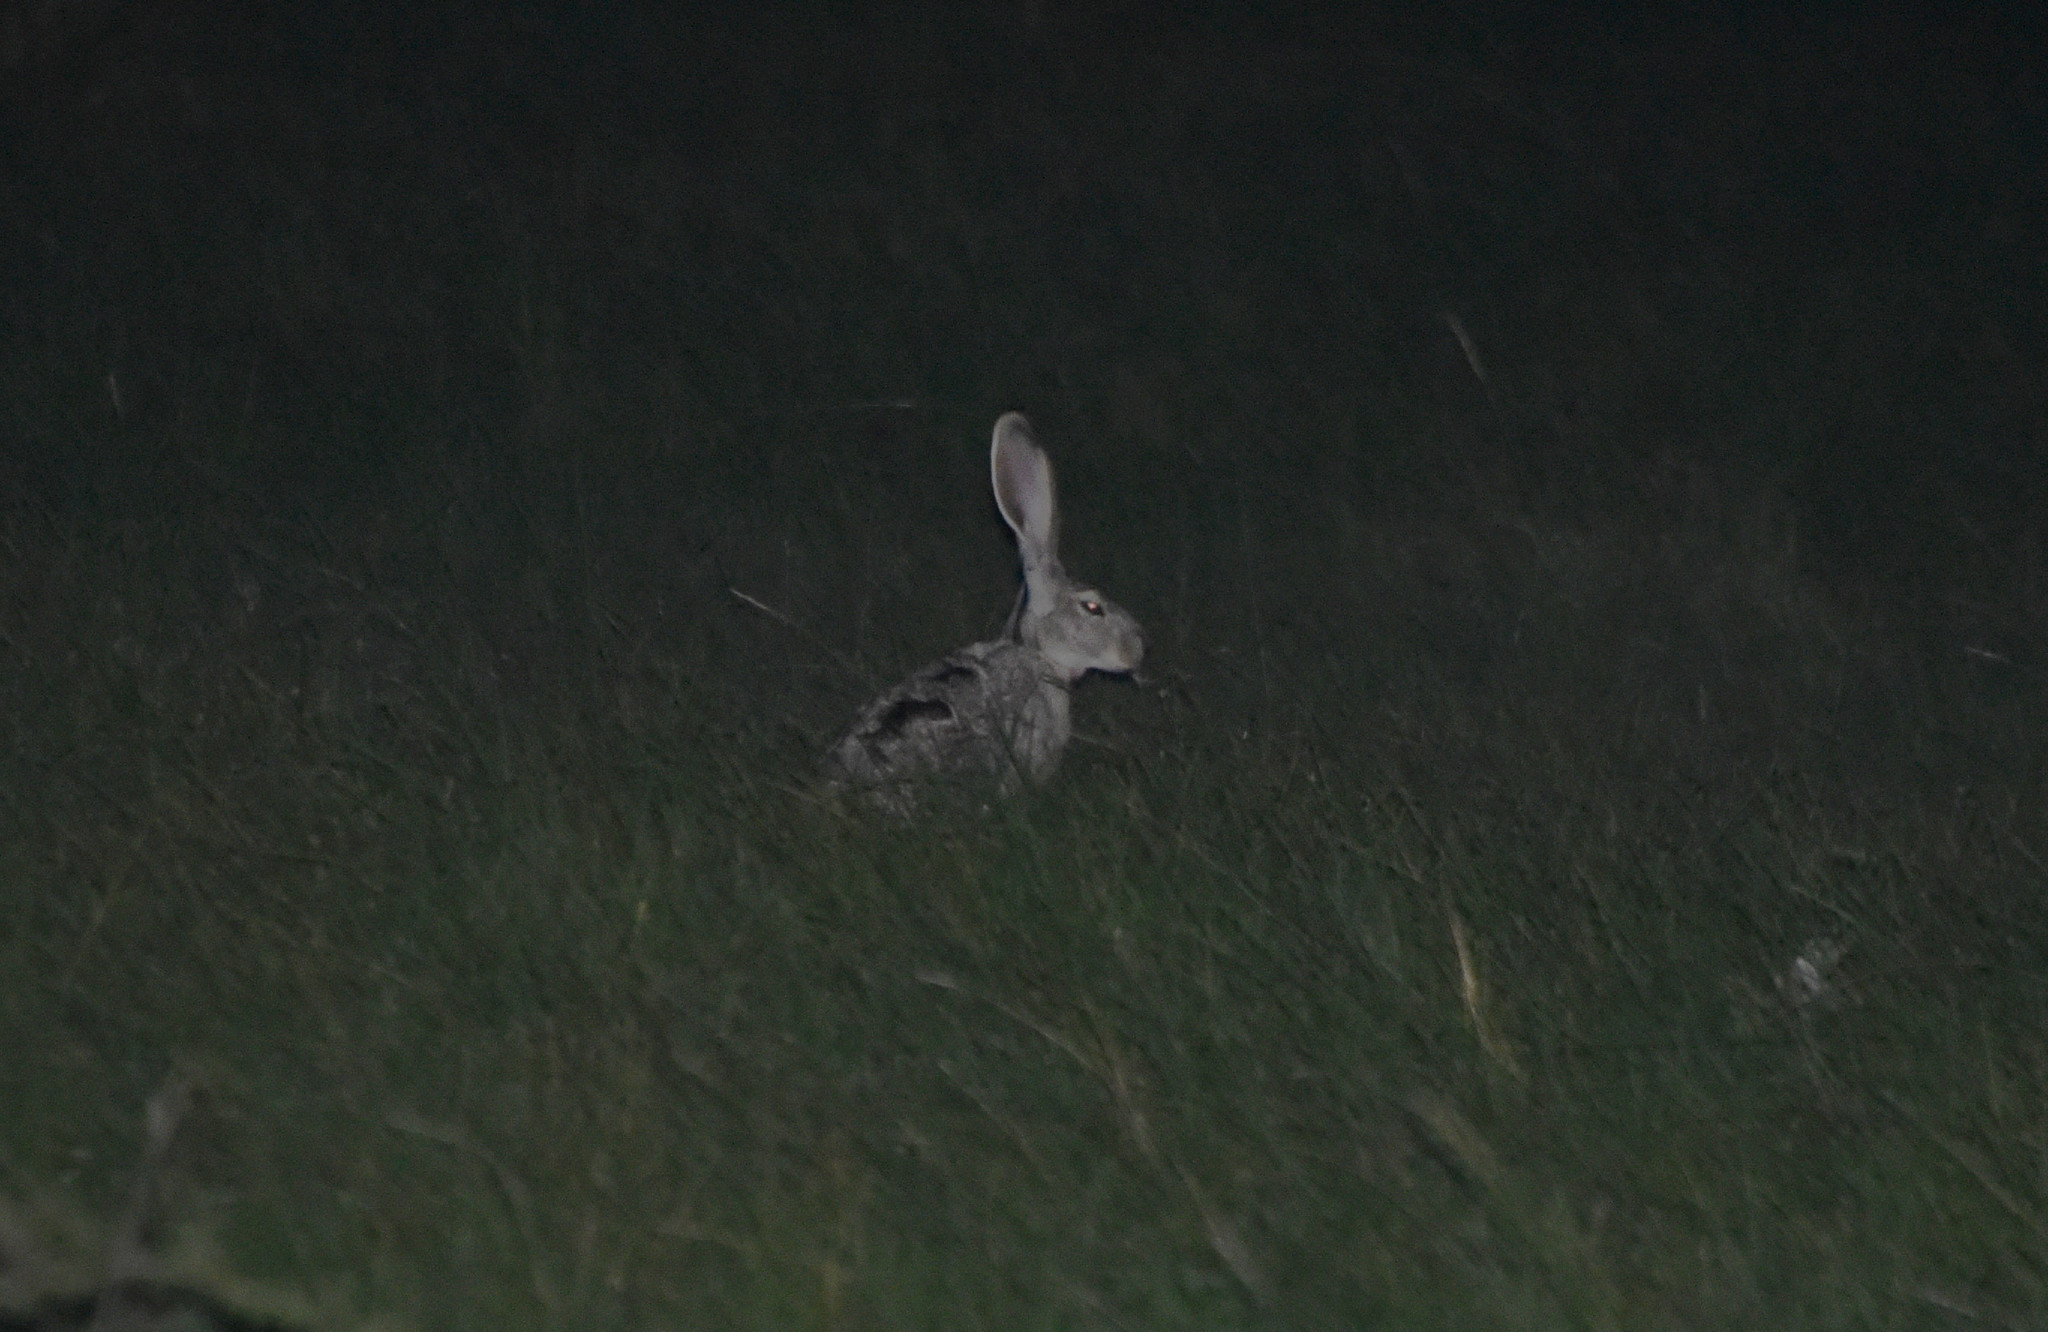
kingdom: Animalia
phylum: Chordata
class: Mammalia
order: Lagomorpha
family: Leporidae
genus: Lepus
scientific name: Lepus californicus
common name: Black-tailed jackrabbit
